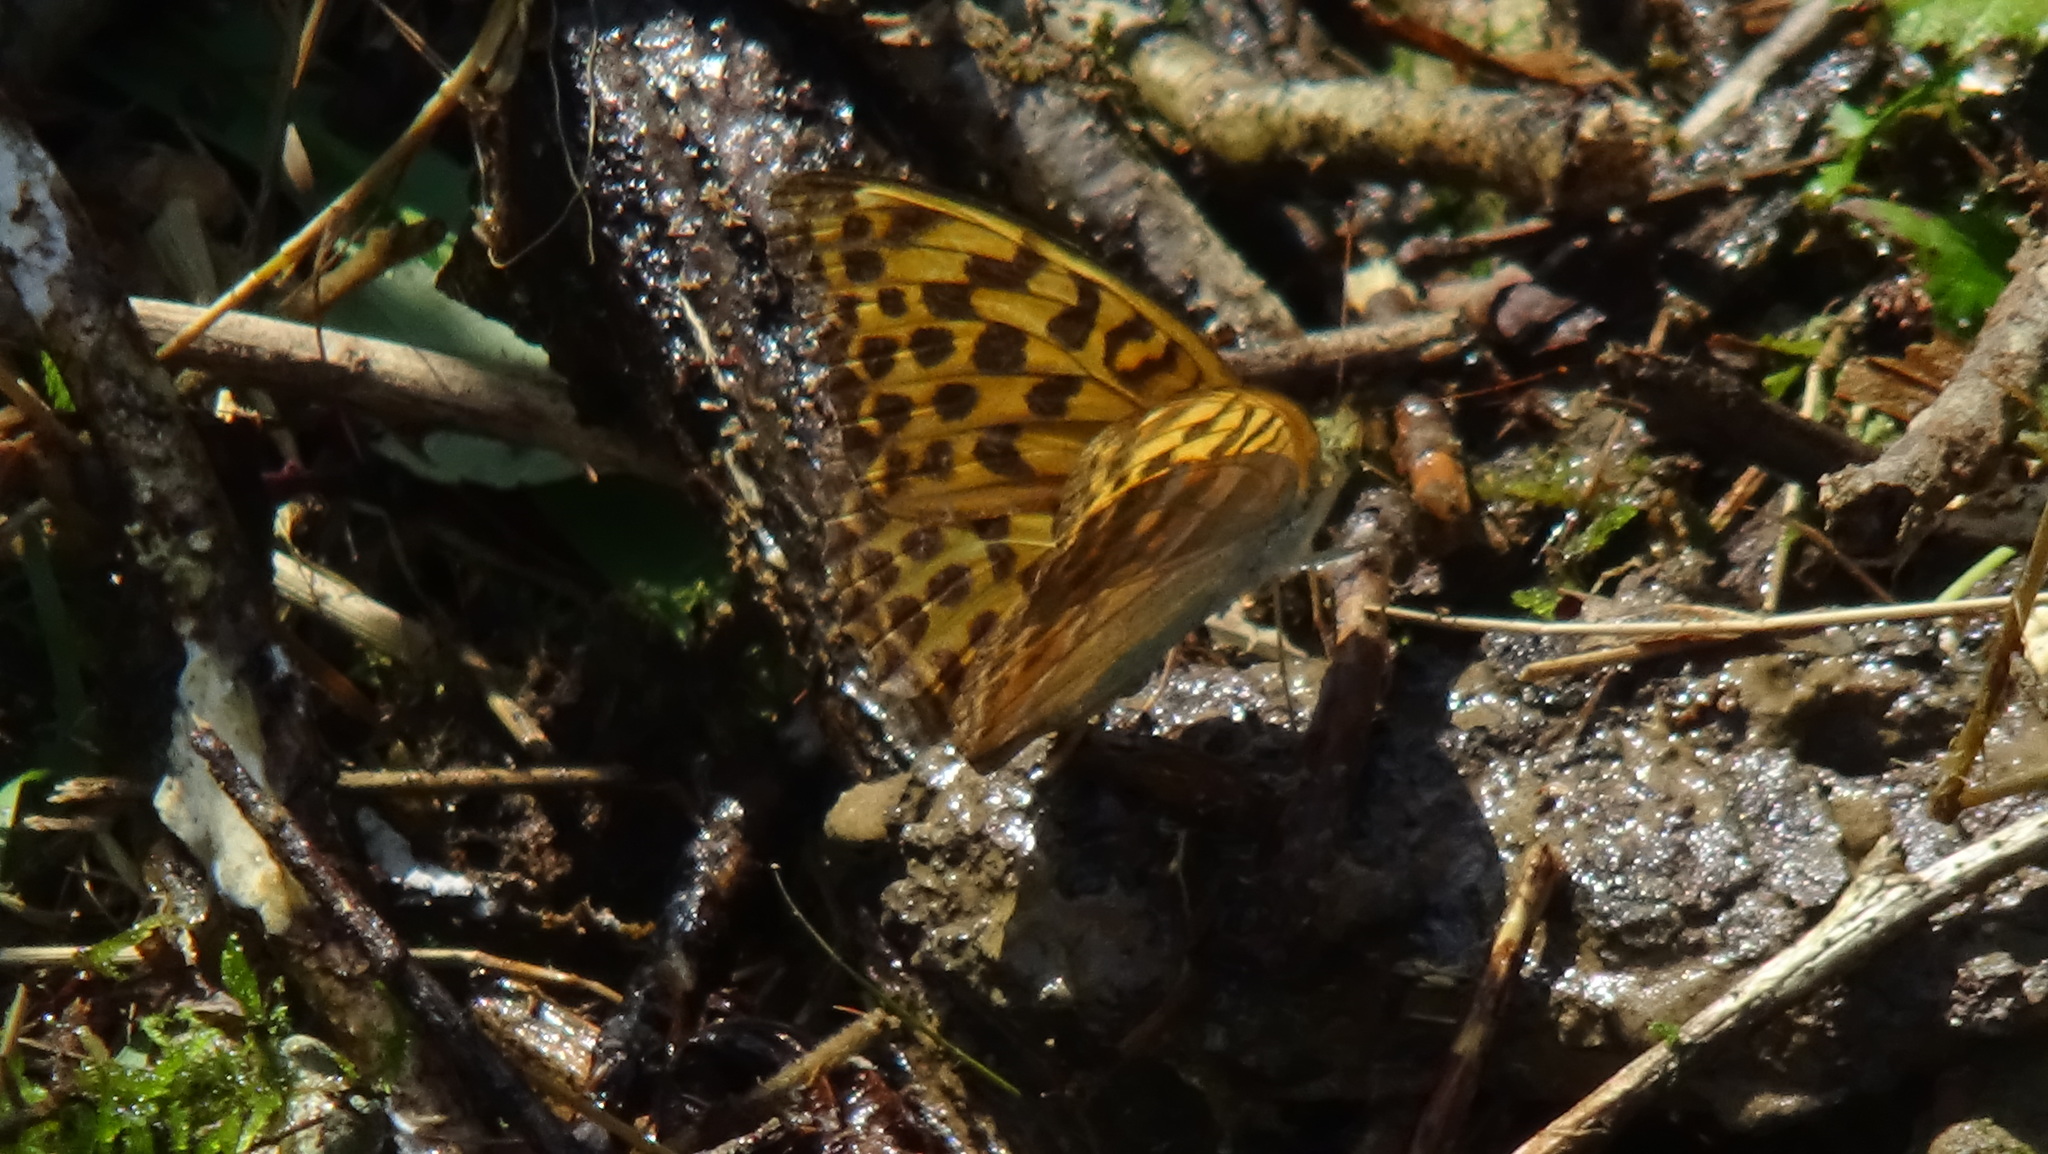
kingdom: Animalia
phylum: Arthropoda
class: Insecta
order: Lepidoptera
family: Nymphalidae
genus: Argynnis
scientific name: Argynnis paphia
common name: Silver-washed fritillary
